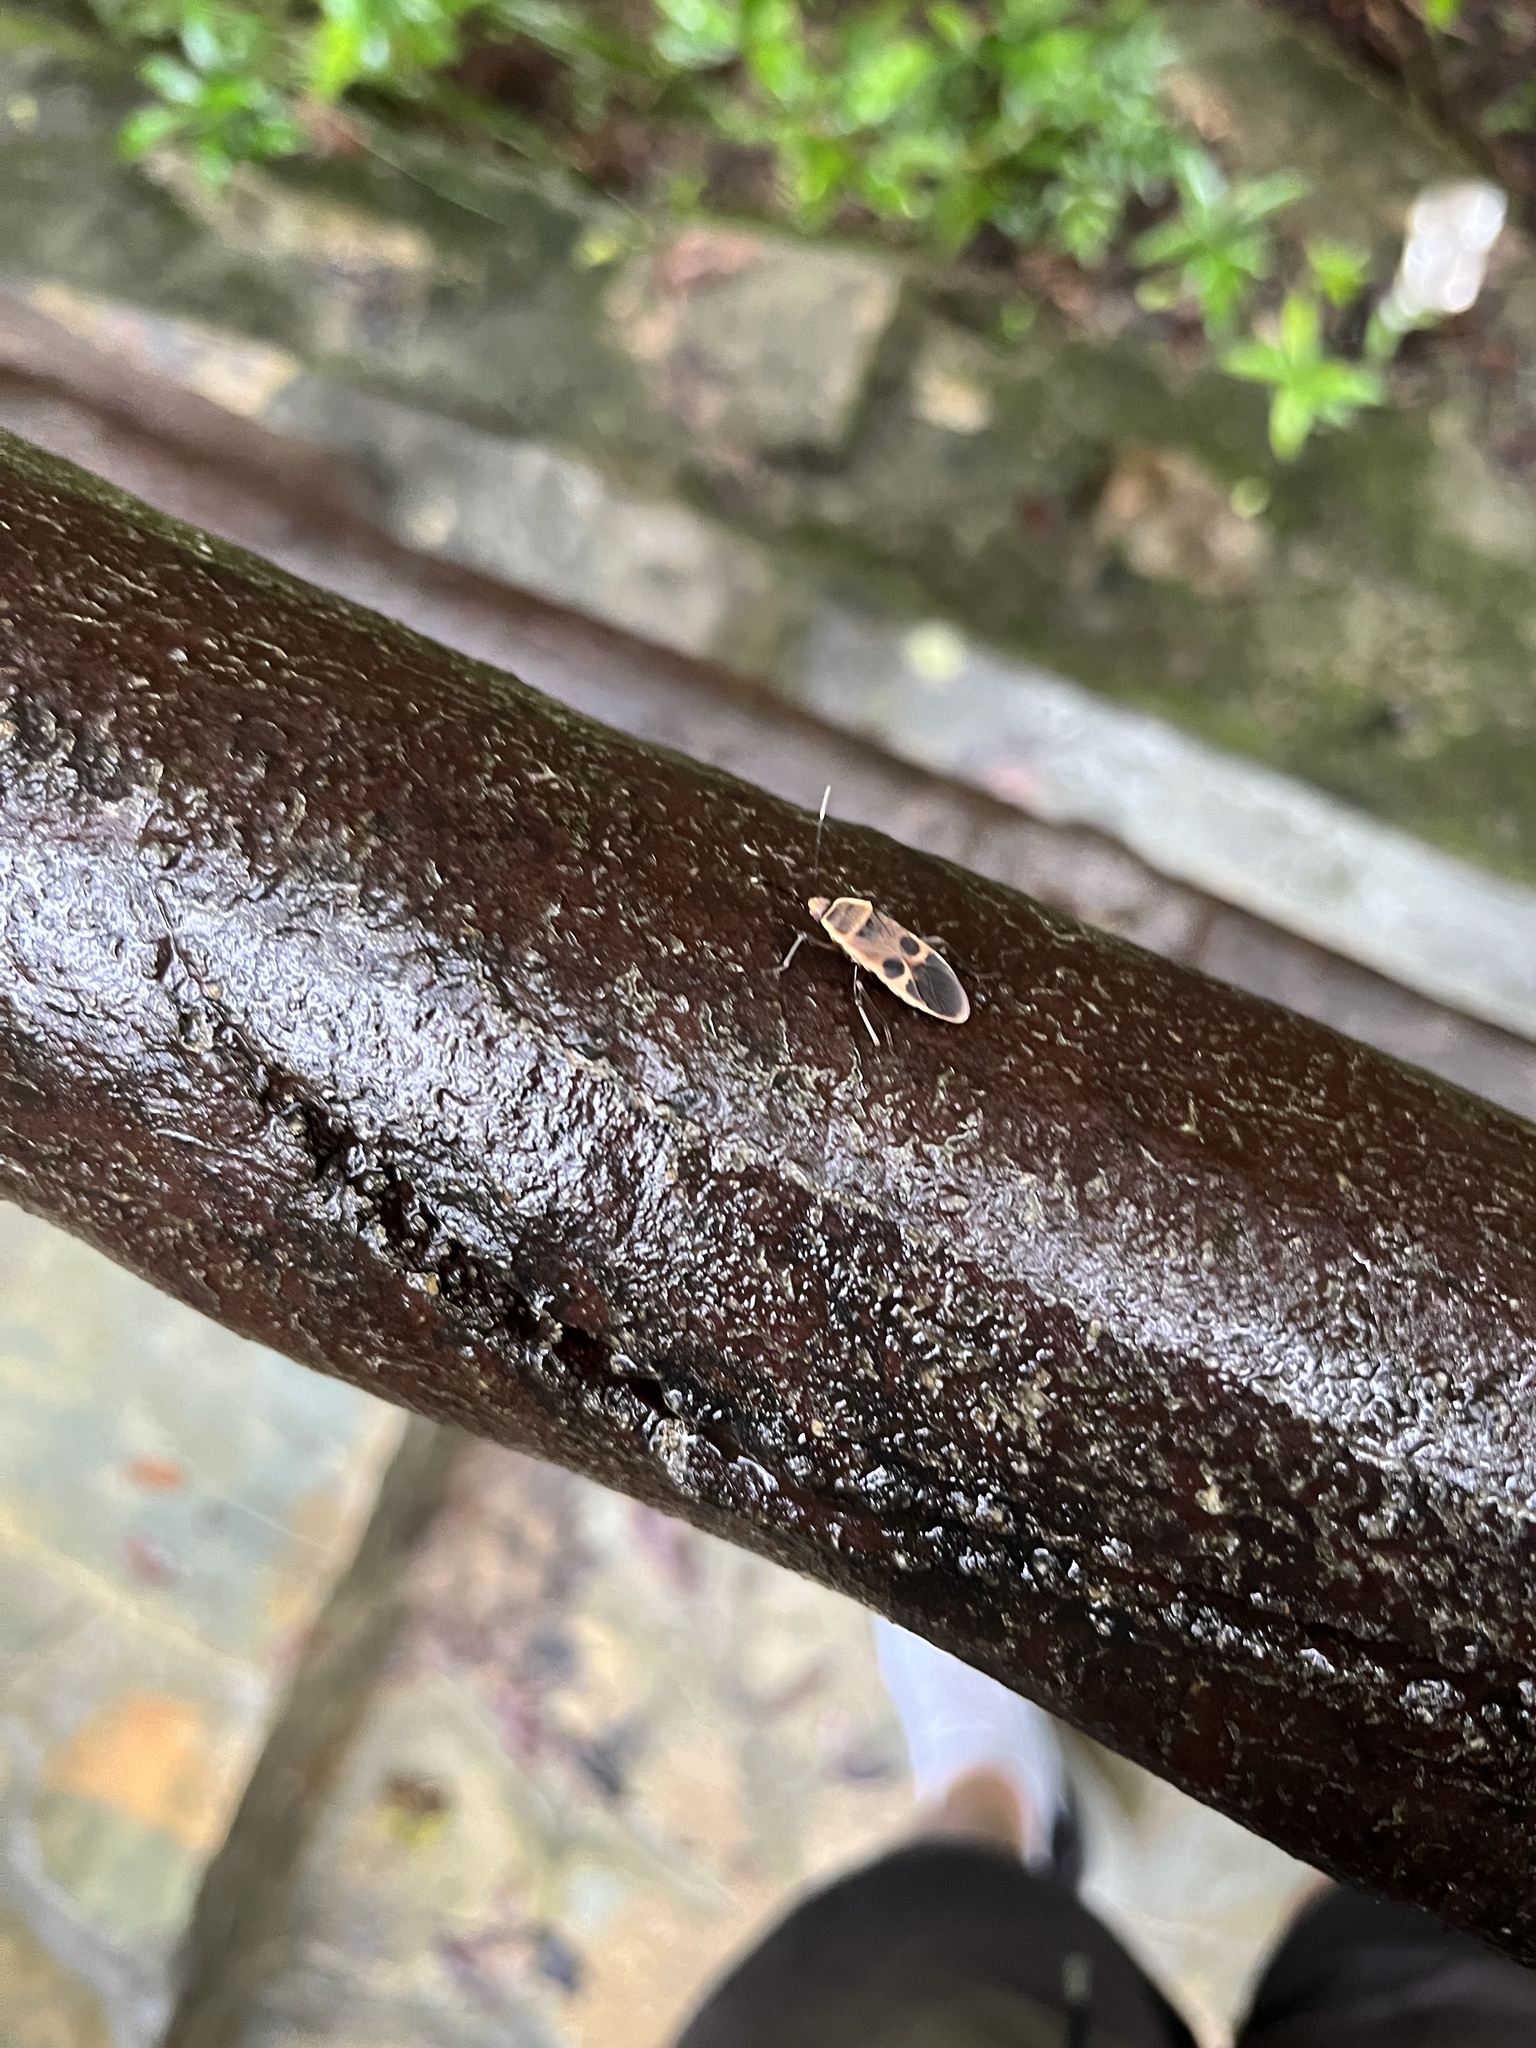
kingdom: Animalia
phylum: Arthropoda
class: Insecta
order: Hemiptera
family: Largidae
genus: Physopelta
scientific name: Physopelta gutta
